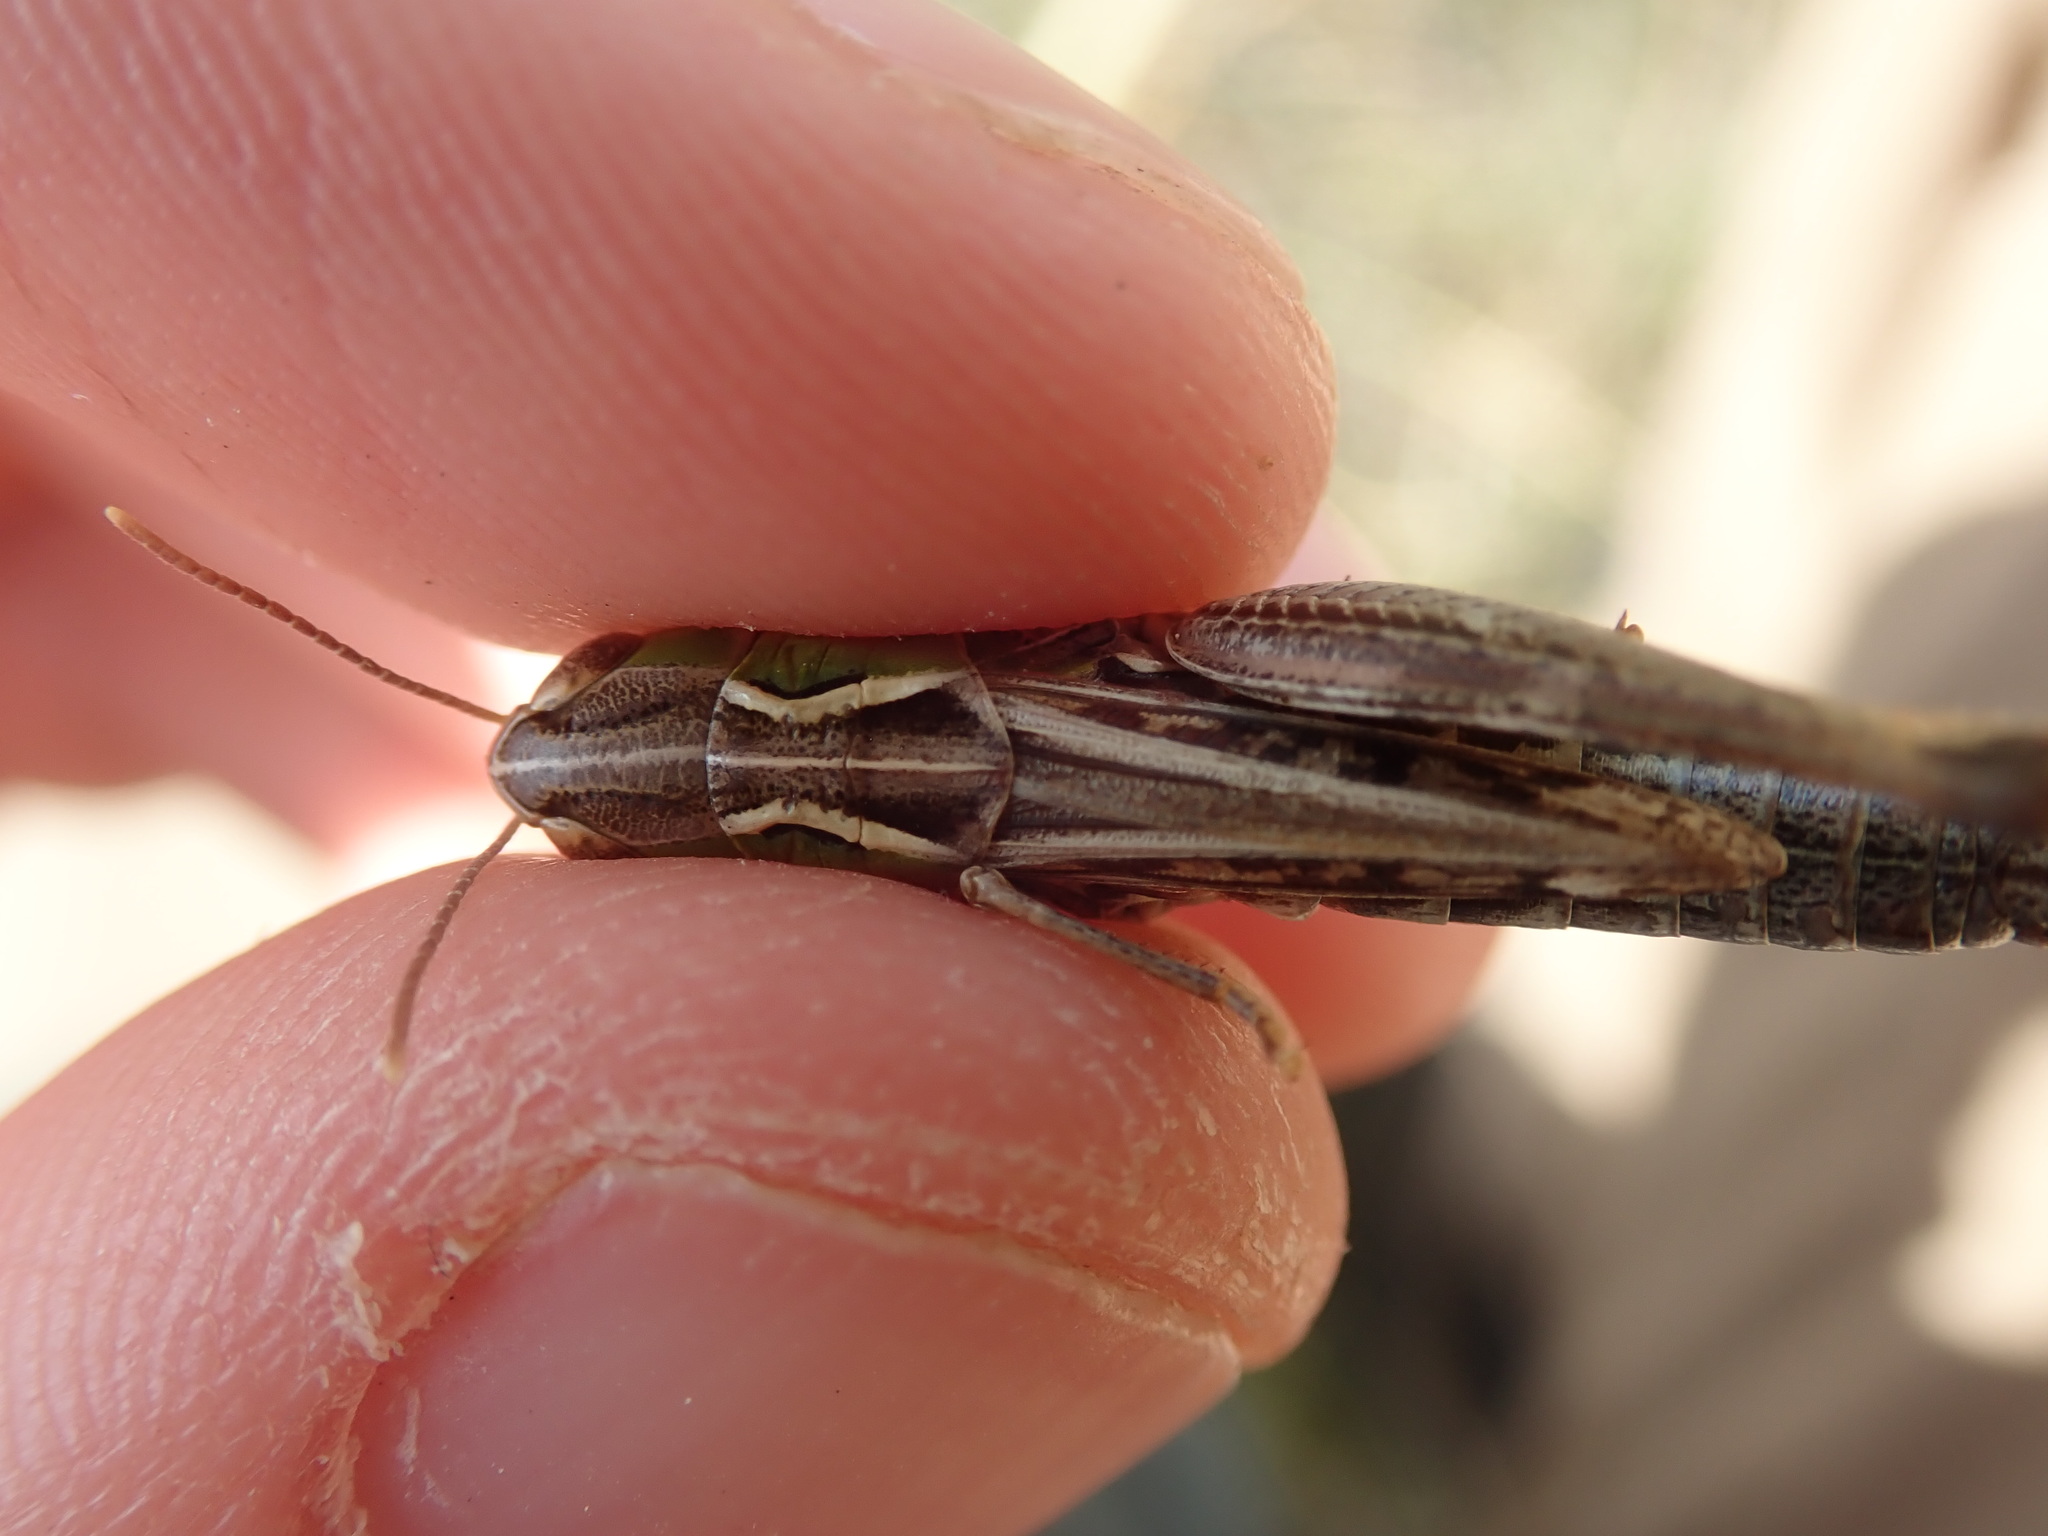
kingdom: Animalia
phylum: Arthropoda
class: Insecta
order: Orthoptera
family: Acrididae
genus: Stenobothrus
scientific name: Stenobothrus nigromaculatus
